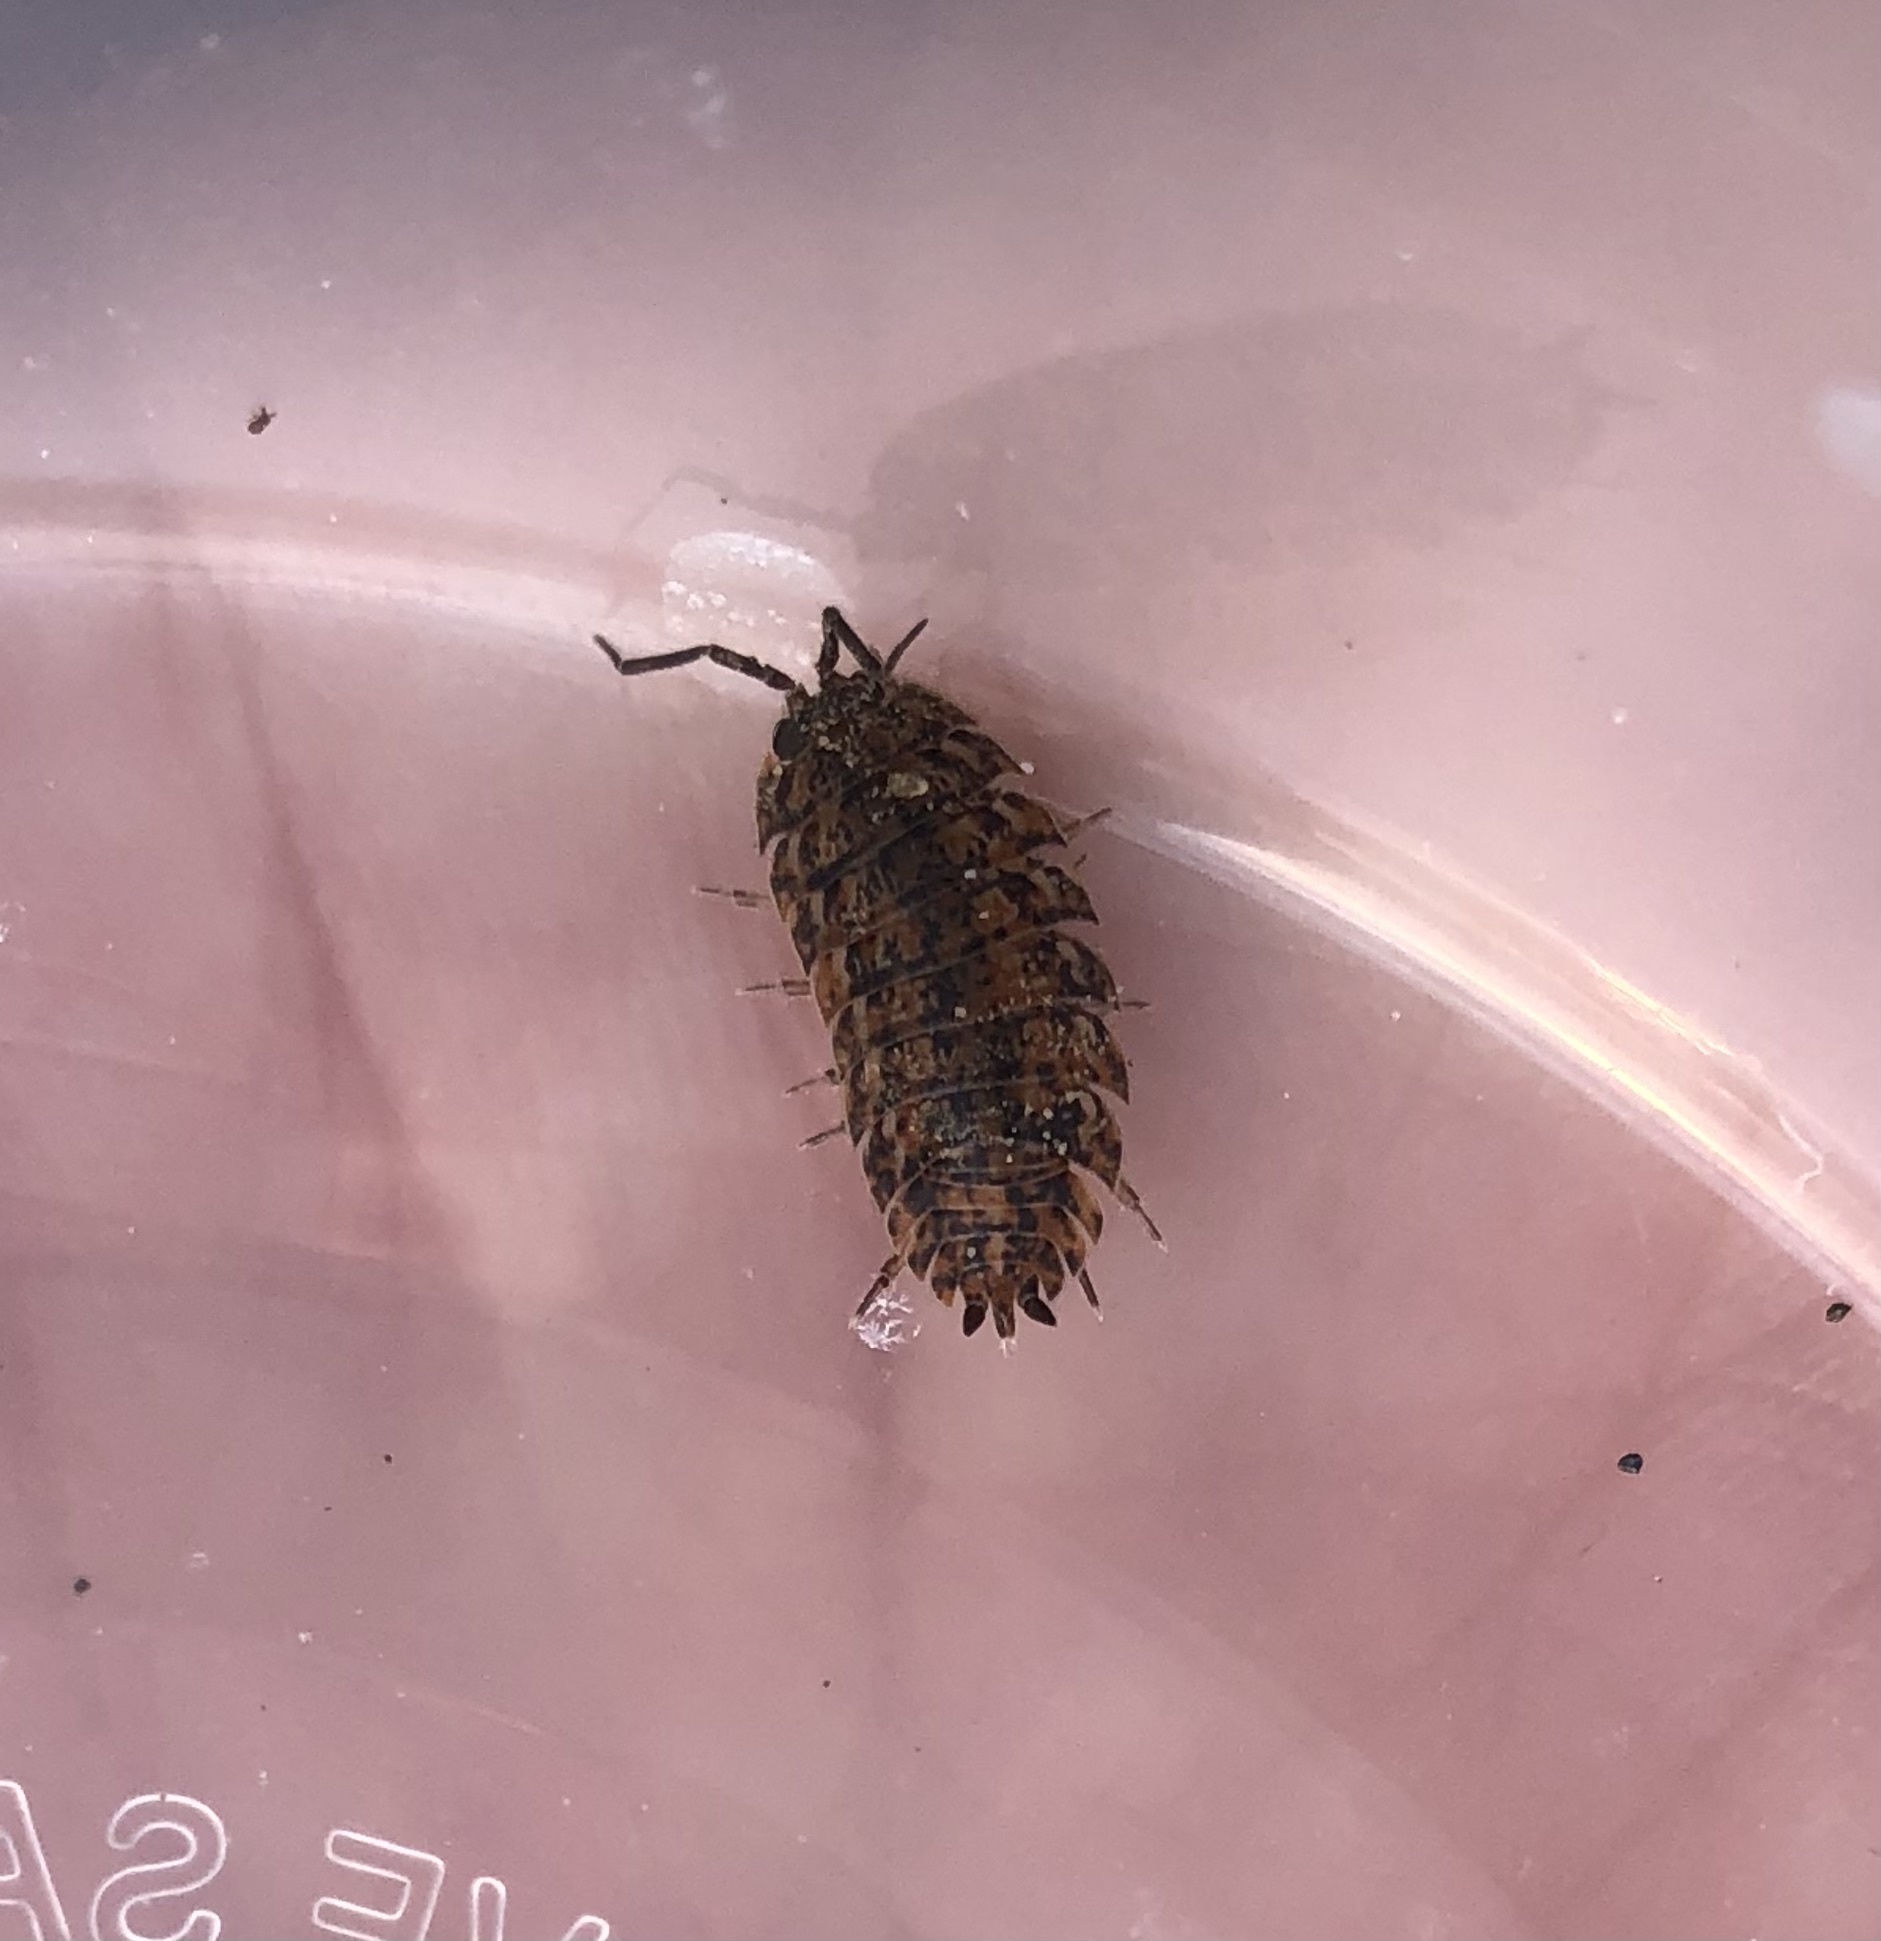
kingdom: Animalia
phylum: Arthropoda
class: Malacostraca
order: Isopoda
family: Trachelipodidae
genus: Trachelipus
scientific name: Trachelipus rathkii
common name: Isopod
